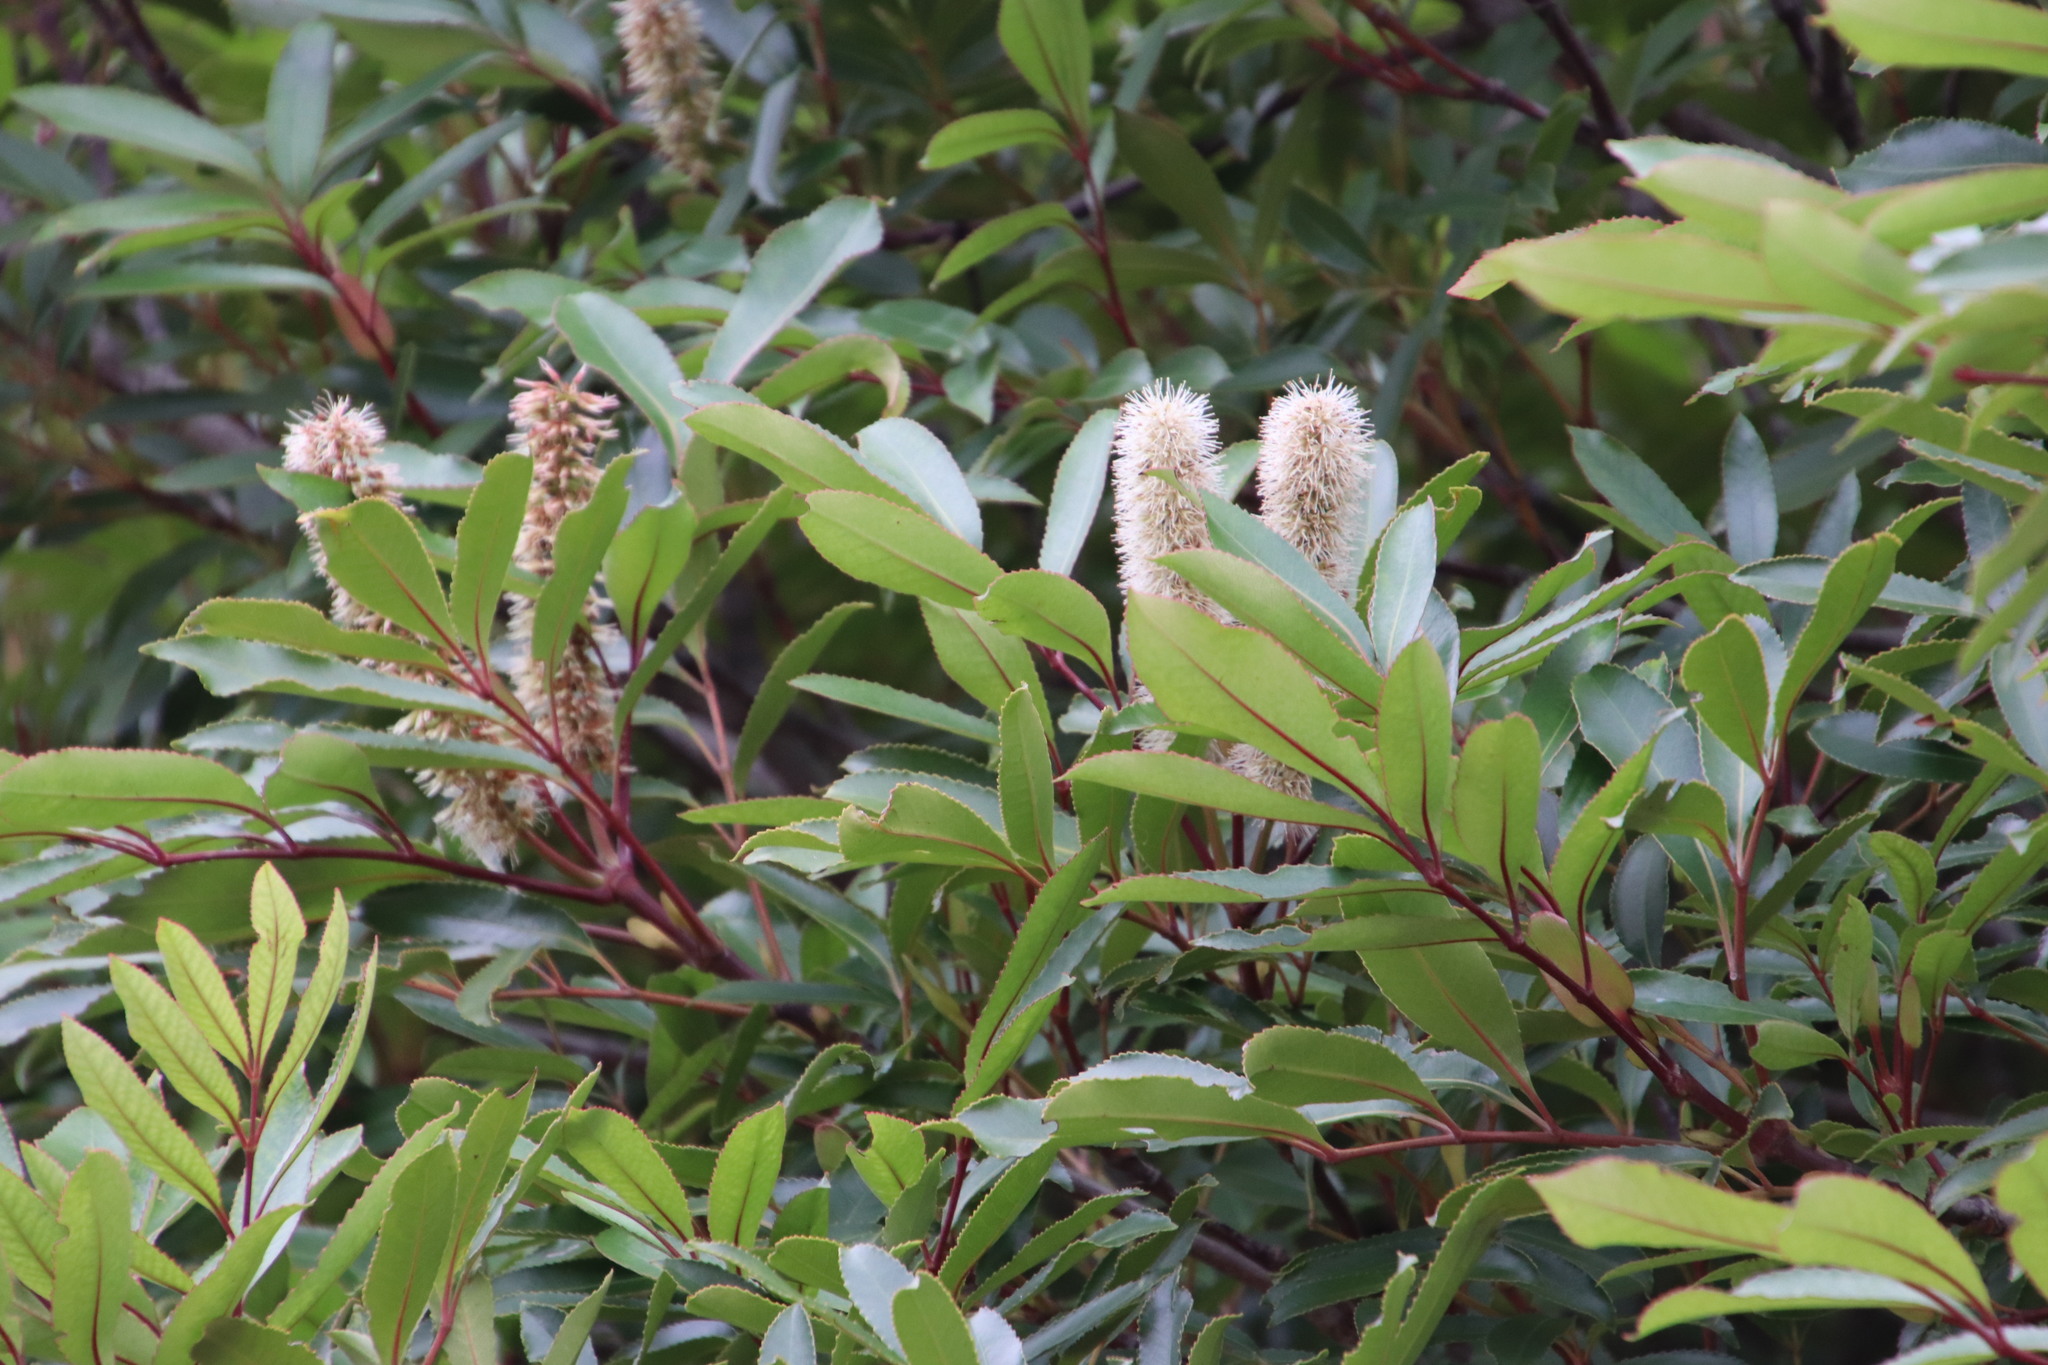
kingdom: Plantae
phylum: Tracheophyta
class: Magnoliopsida
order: Oxalidales
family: Cunoniaceae
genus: Cunonia
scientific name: Cunonia capensis
